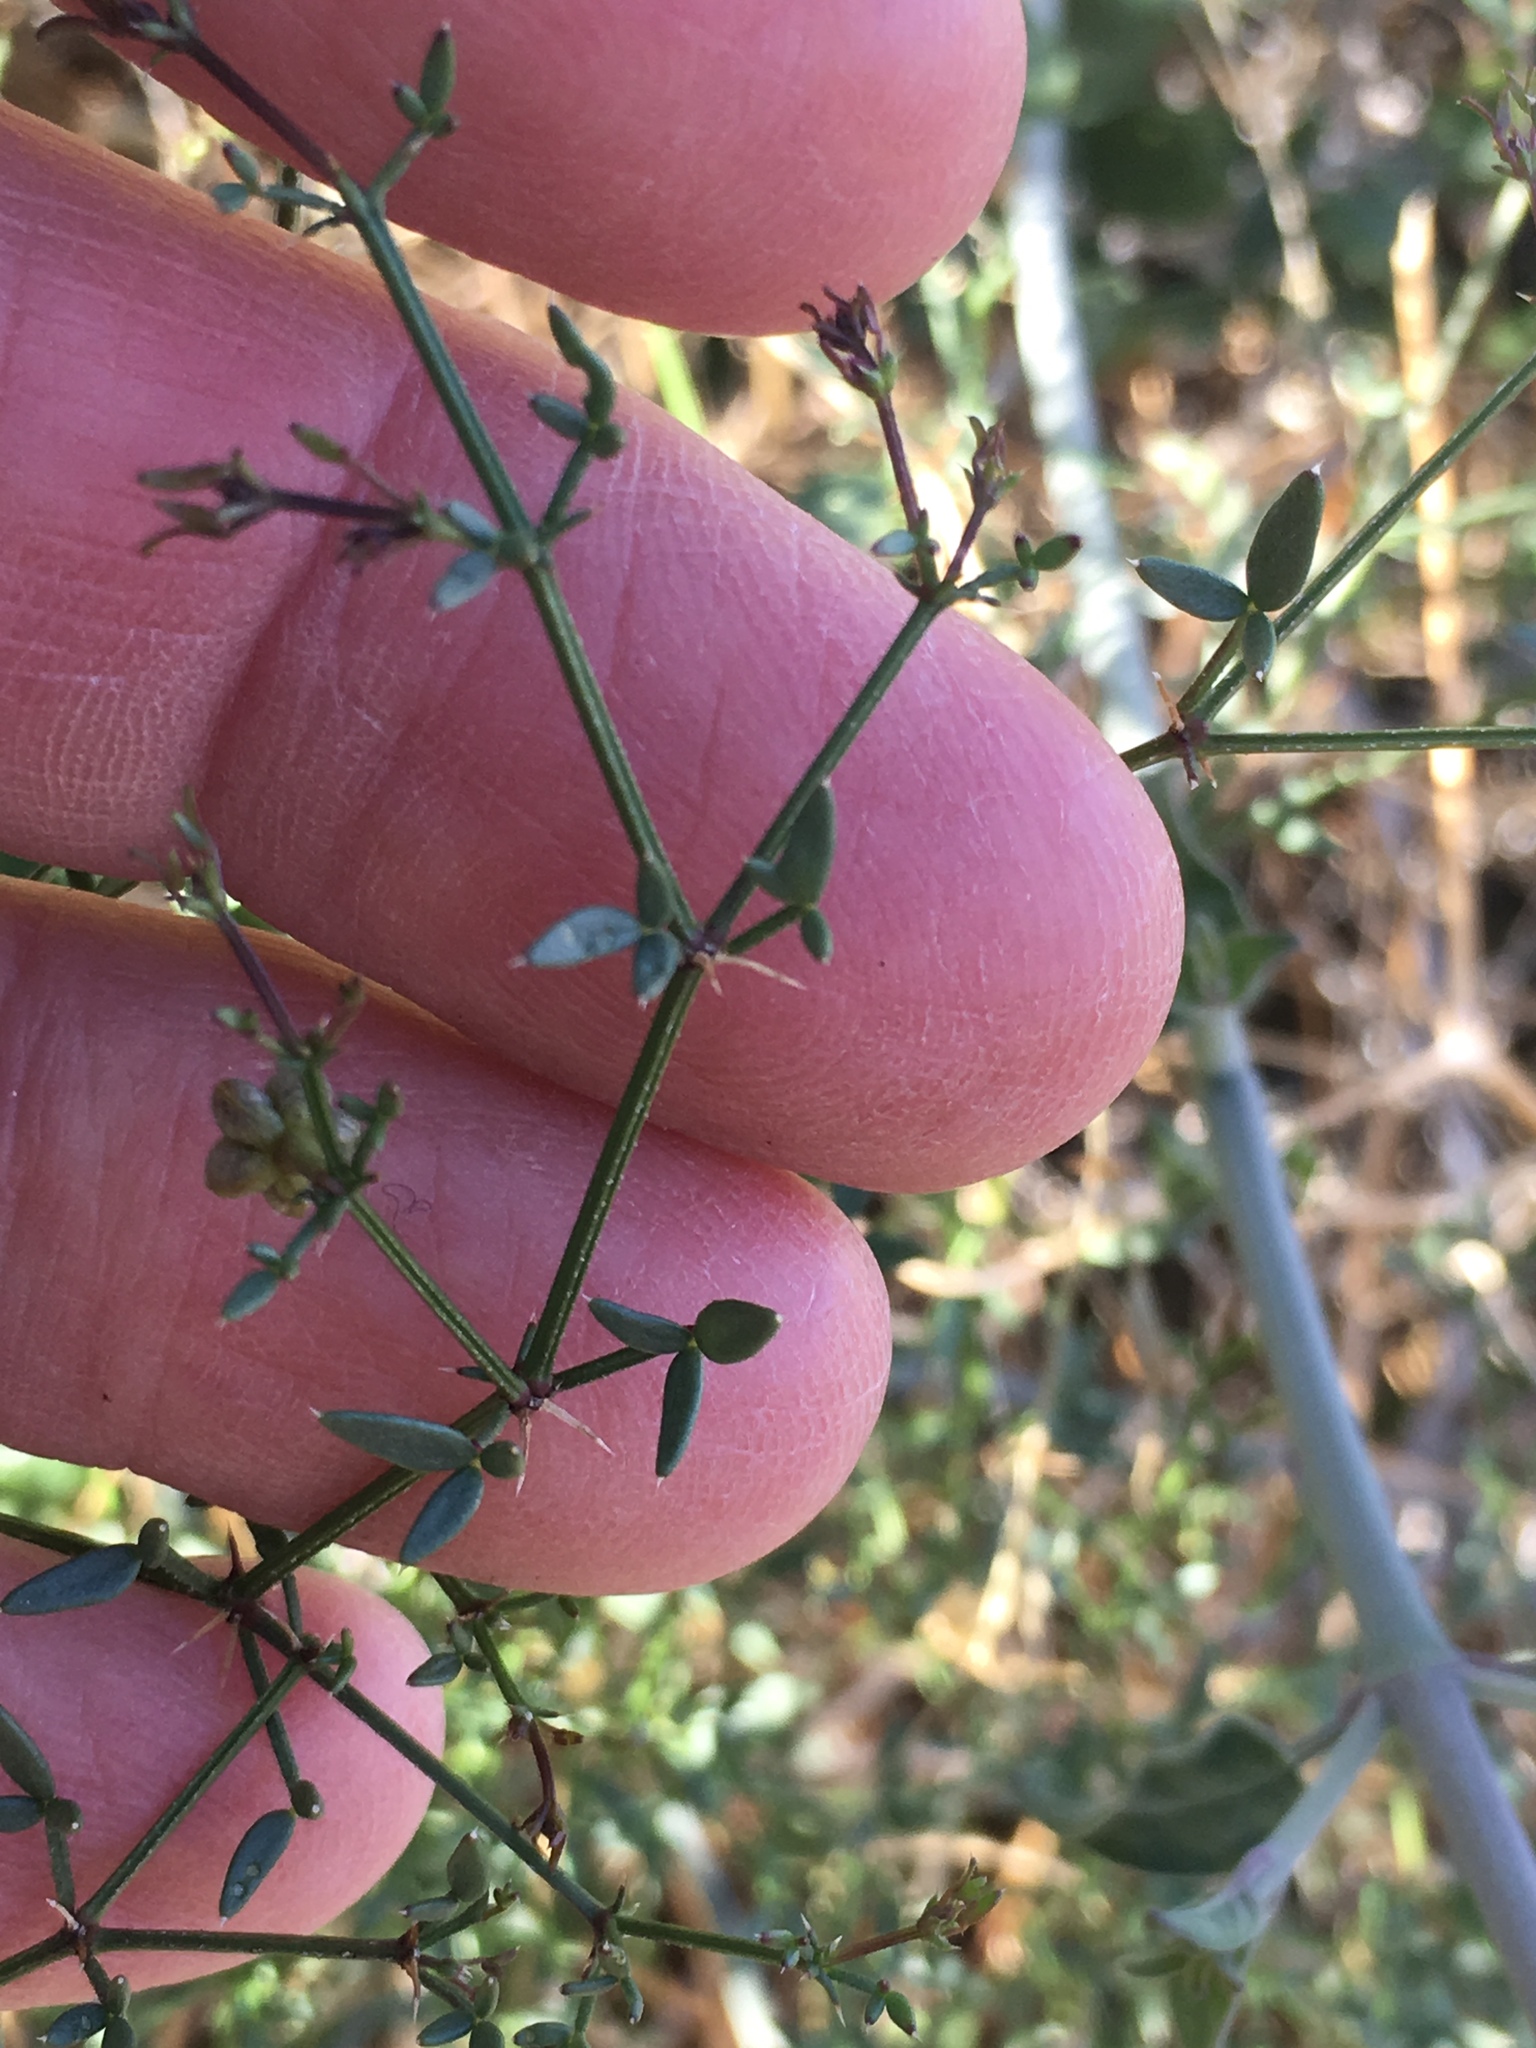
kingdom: Plantae
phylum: Tracheophyta
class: Magnoliopsida
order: Zygophyllales
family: Zygophyllaceae
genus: Fagonia
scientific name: Fagonia laevis
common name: California fagonbush
